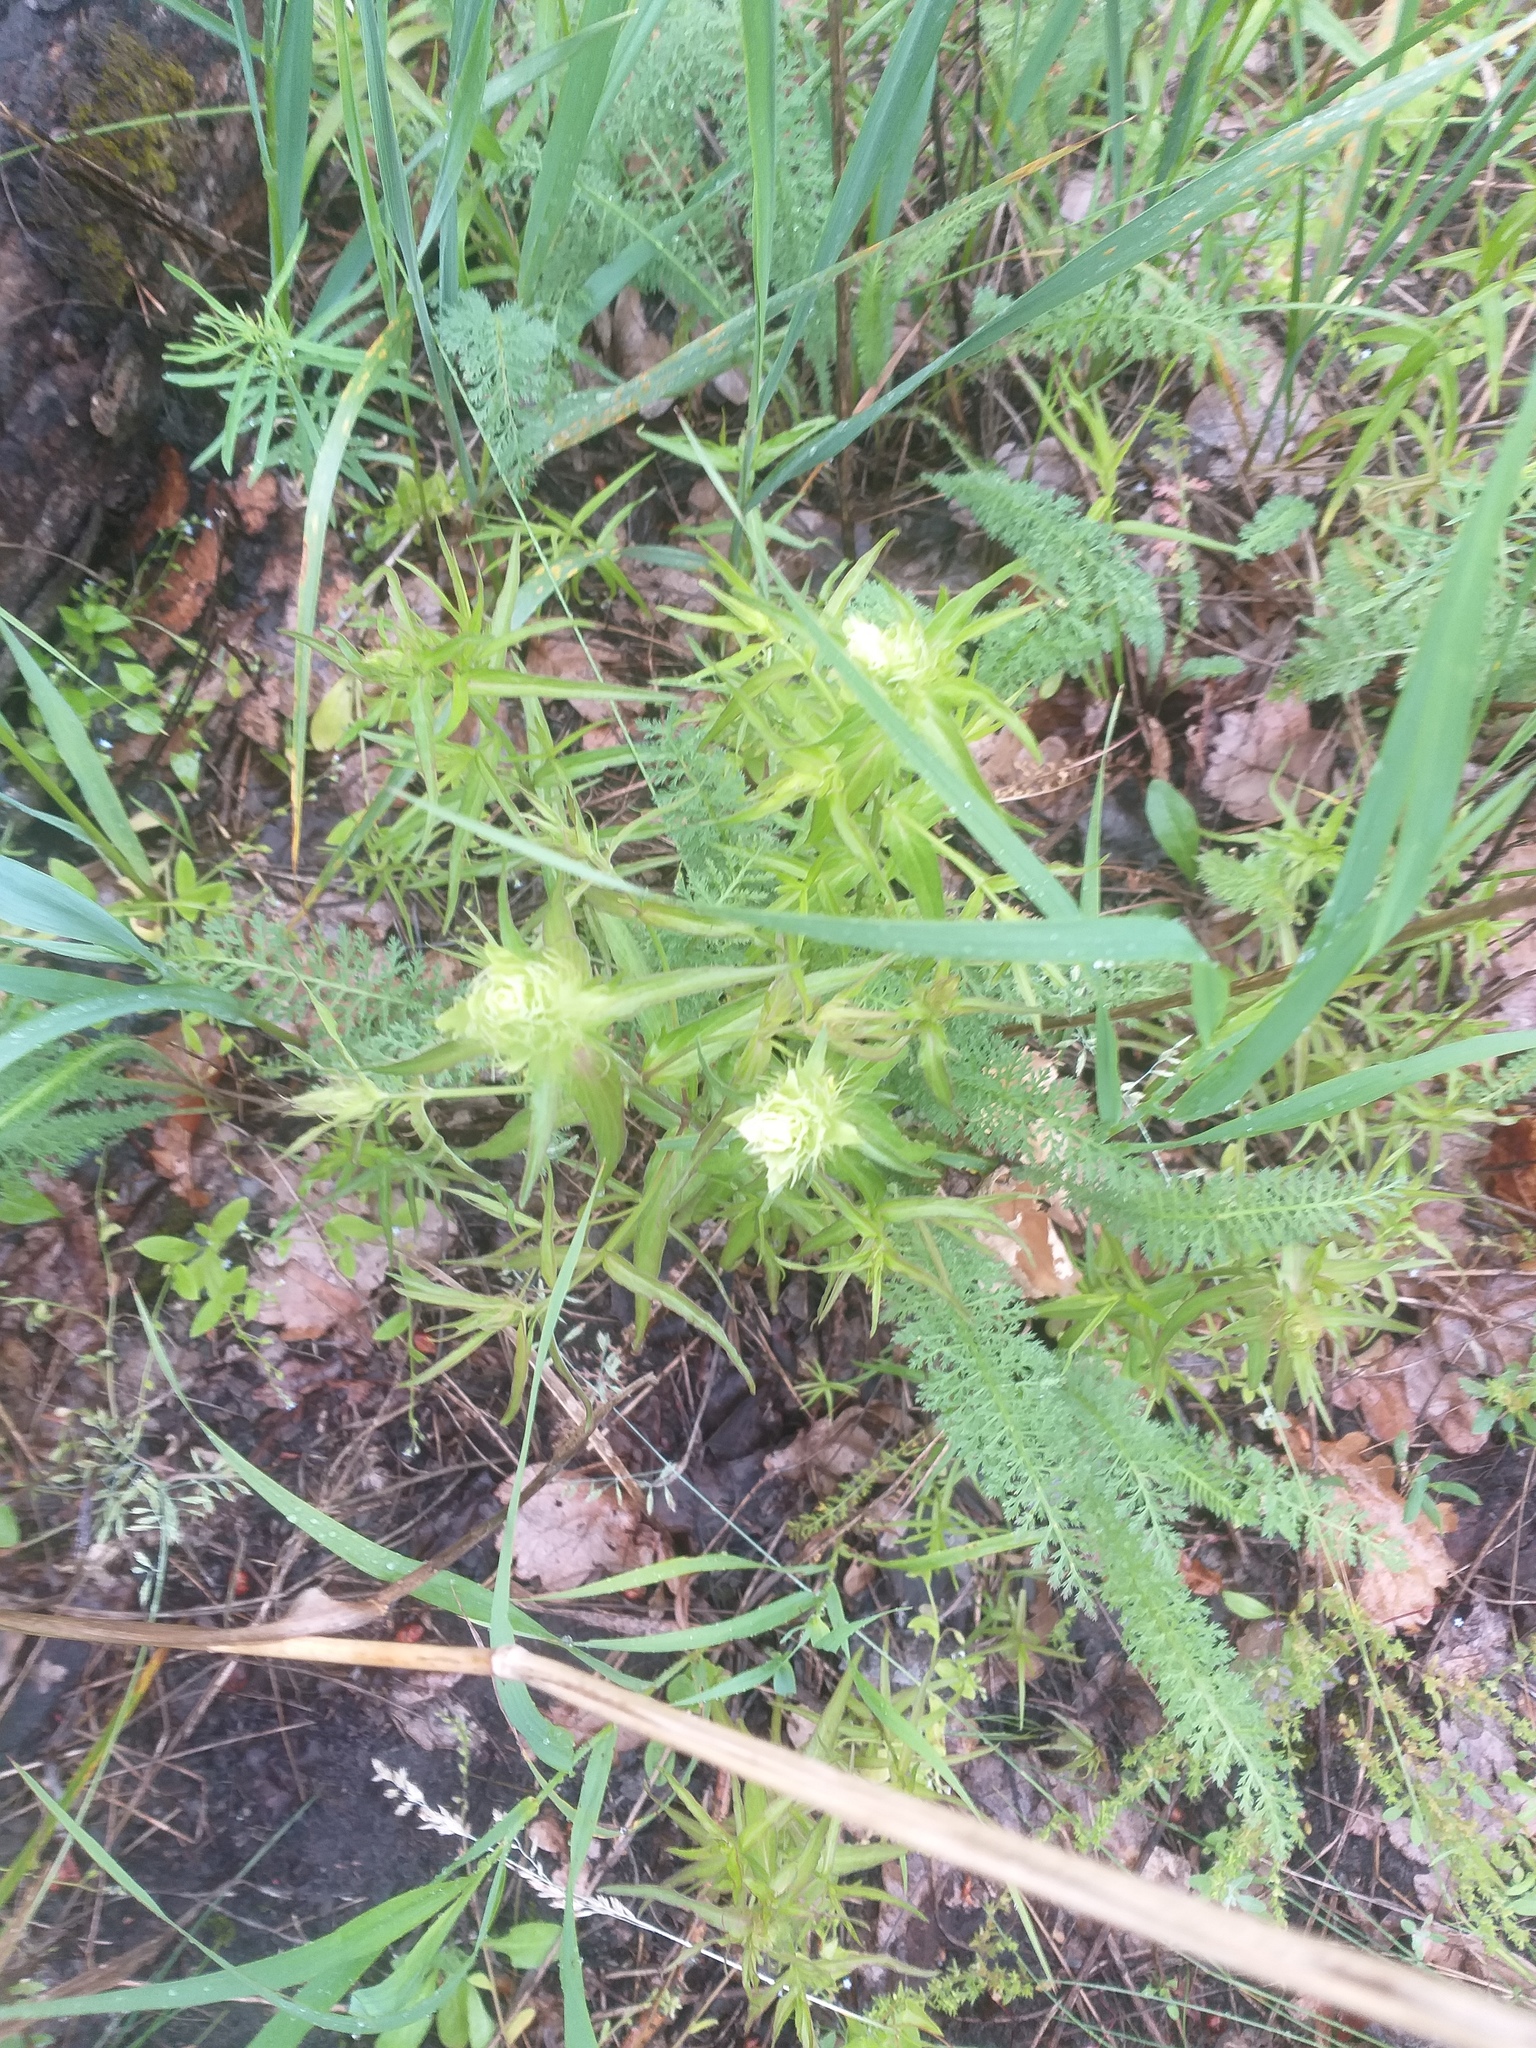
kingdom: Plantae
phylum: Tracheophyta
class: Magnoliopsida
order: Lamiales
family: Orobanchaceae
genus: Melampyrum
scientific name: Melampyrum arvense
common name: Field cow-wheat
